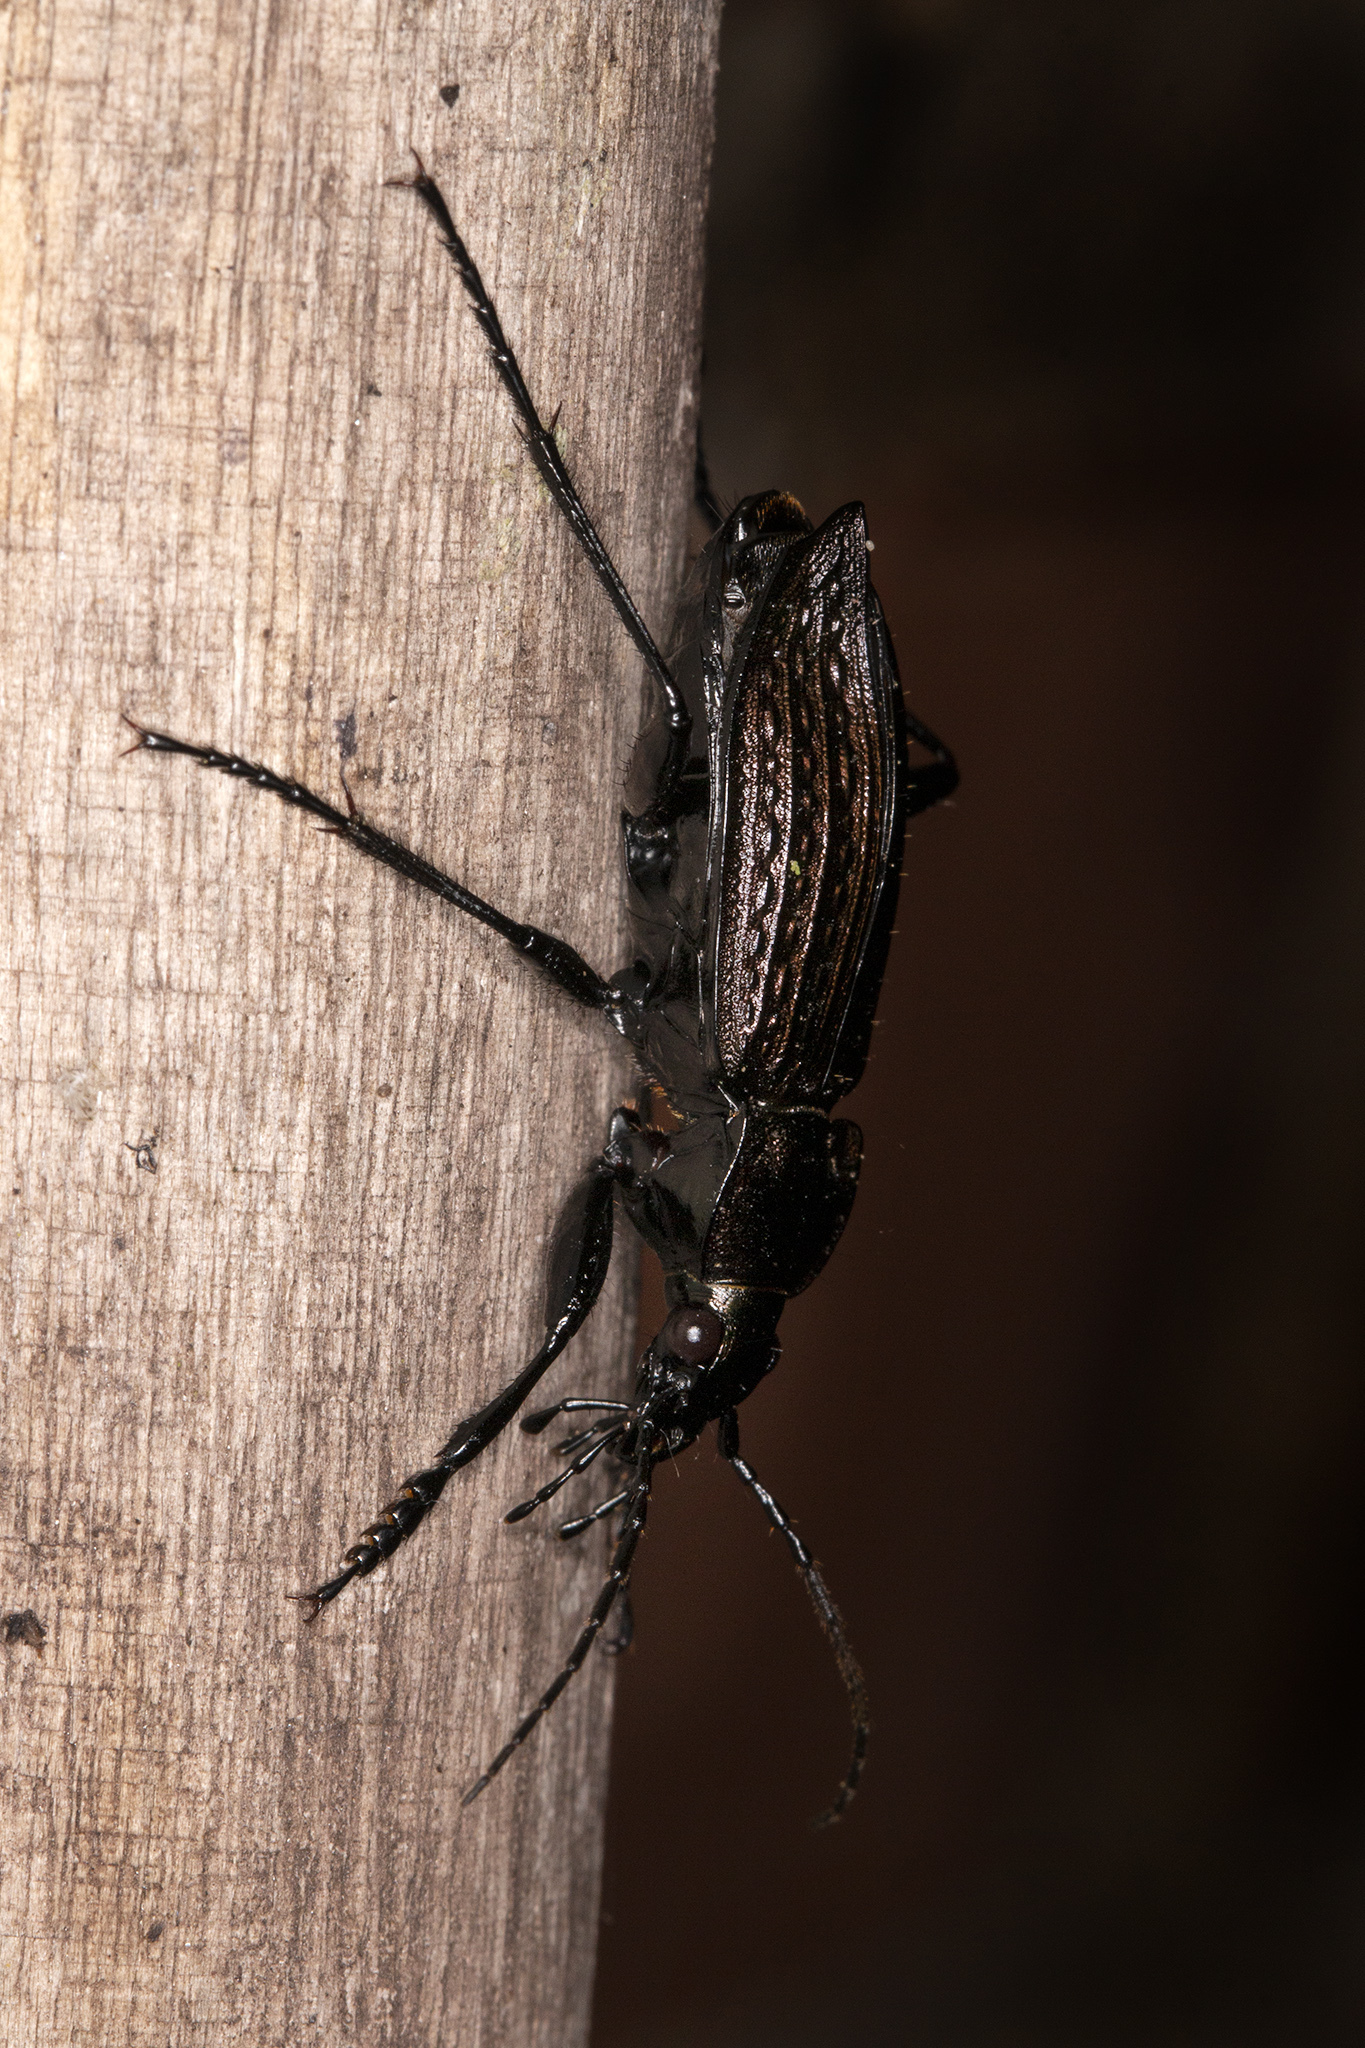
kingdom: Animalia
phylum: Arthropoda
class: Insecta
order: Coleoptera
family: Carabidae
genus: Carabus
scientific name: Carabus granulatus
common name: Granulate ground beetle
